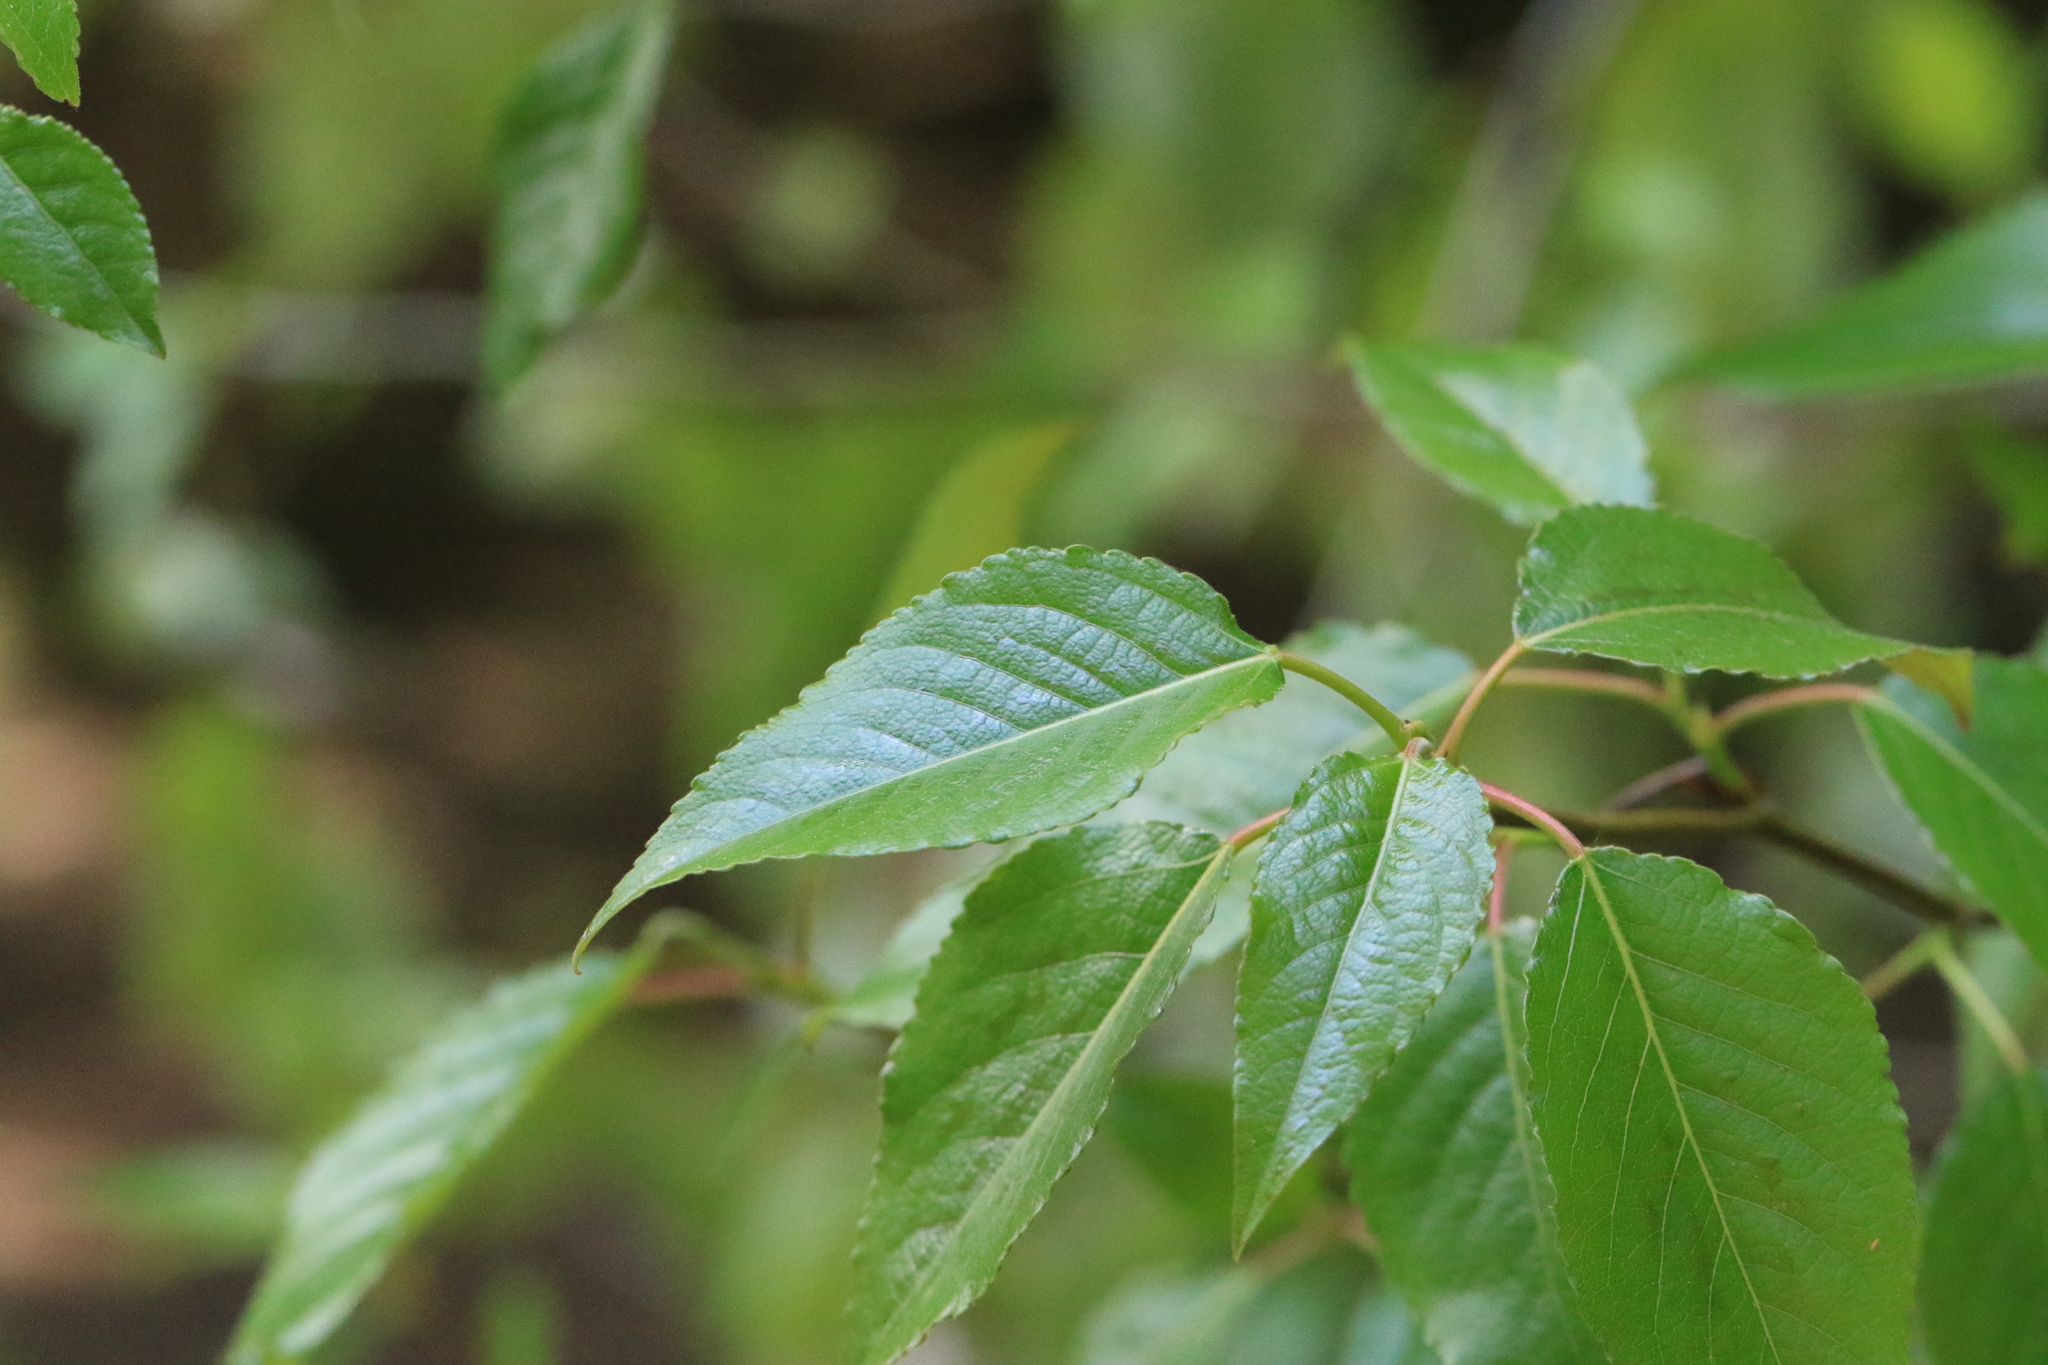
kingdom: Plantae
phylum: Tracheophyta
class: Magnoliopsida
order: Malpighiales
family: Salicaceae
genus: Populus
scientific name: Populus trichocarpa
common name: Black cottonwood
